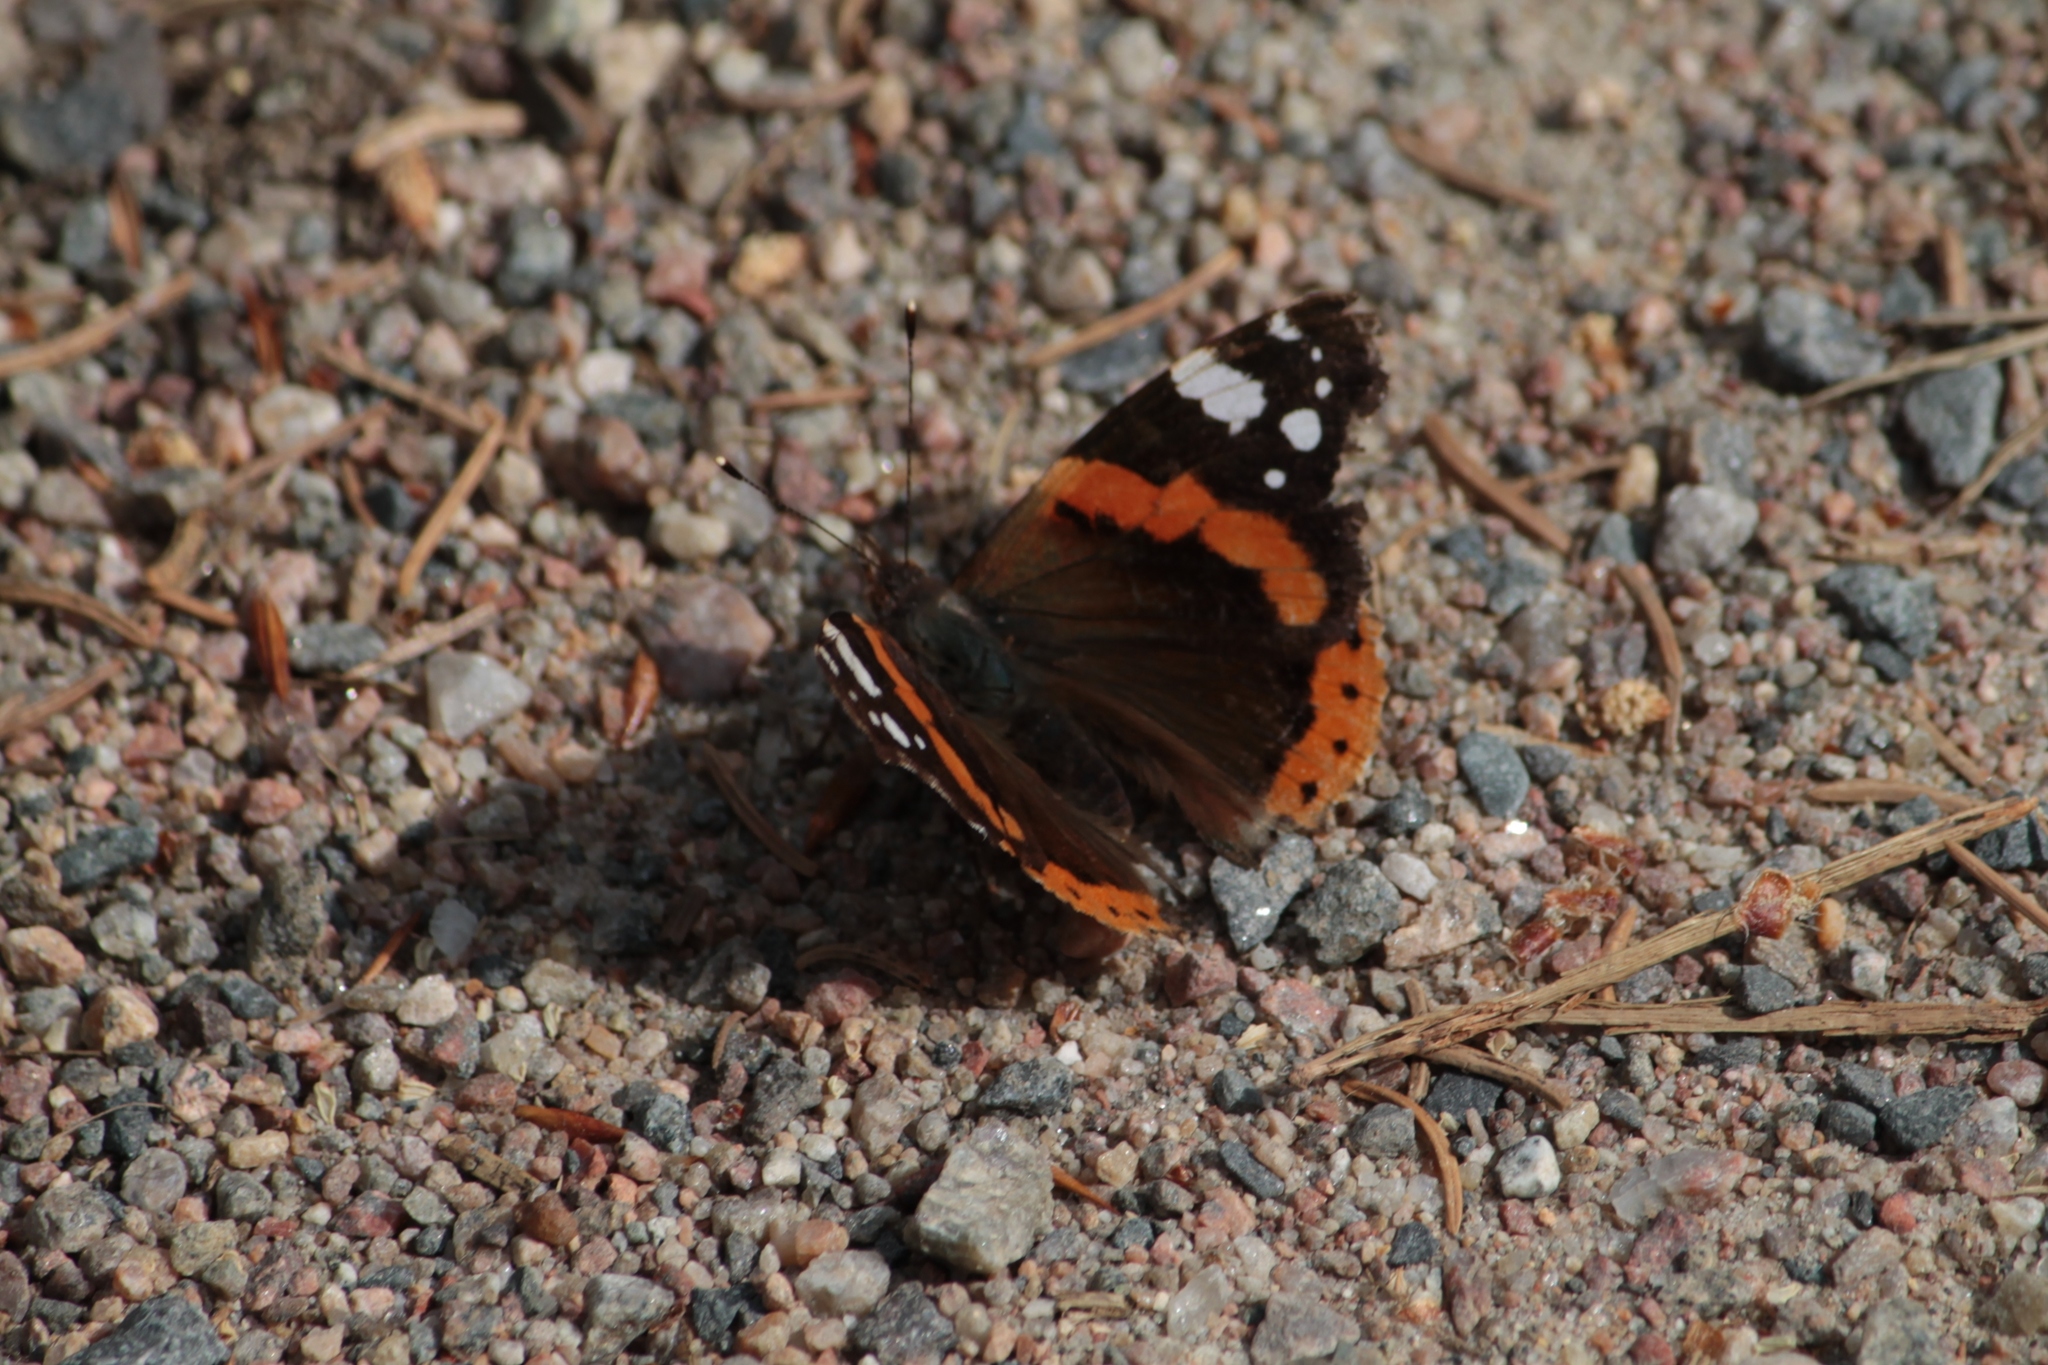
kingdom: Animalia
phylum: Arthropoda
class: Insecta
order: Lepidoptera
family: Nymphalidae
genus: Vanessa
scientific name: Vanessa atalanta
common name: Red admiral
